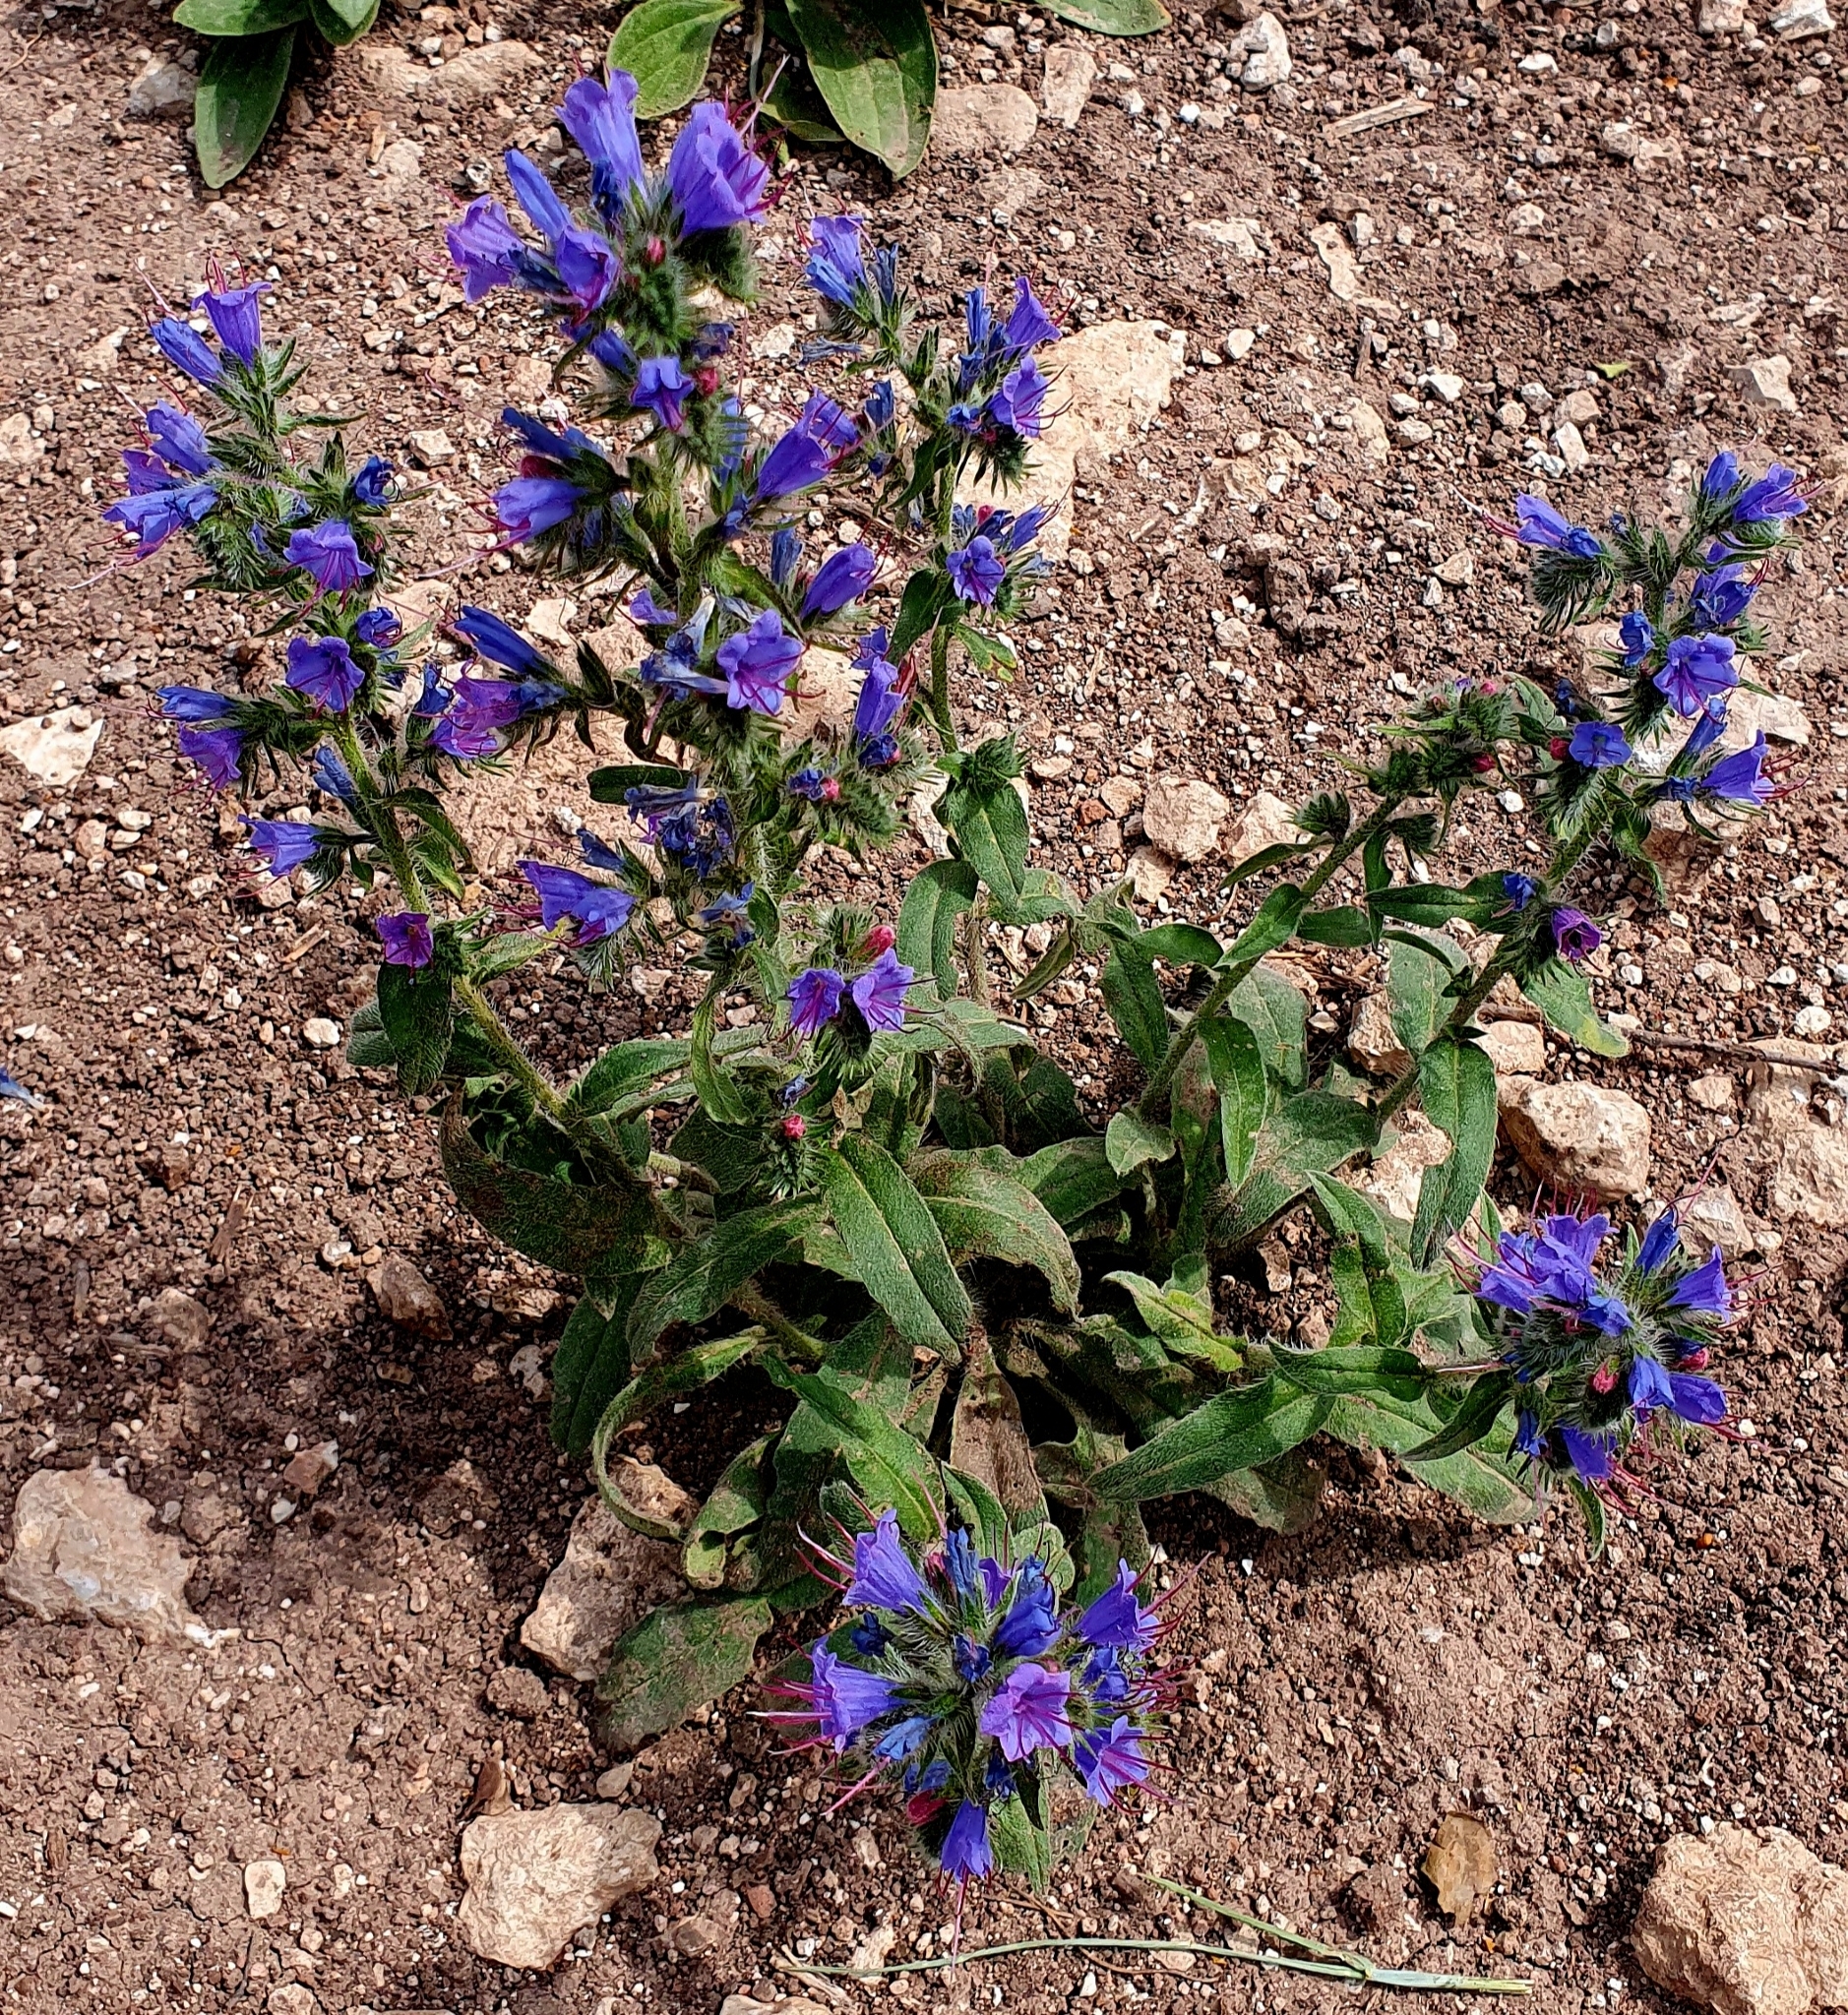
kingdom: Plantae
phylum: Tracheophyta
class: Magnoliopsida
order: Boraginales
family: Boraginaceae
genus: Echium
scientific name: Echium vulgare
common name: Common viper's bugloss
